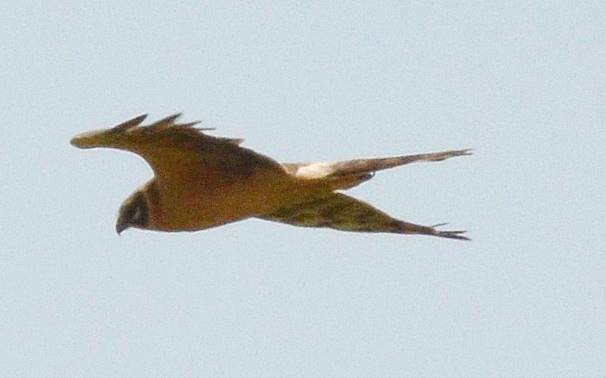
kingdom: Animalia
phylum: Chordata
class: Aves
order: Accipitriformes
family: Accipitridae
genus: Circus
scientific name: Circus macrourus
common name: Pallid harrier
